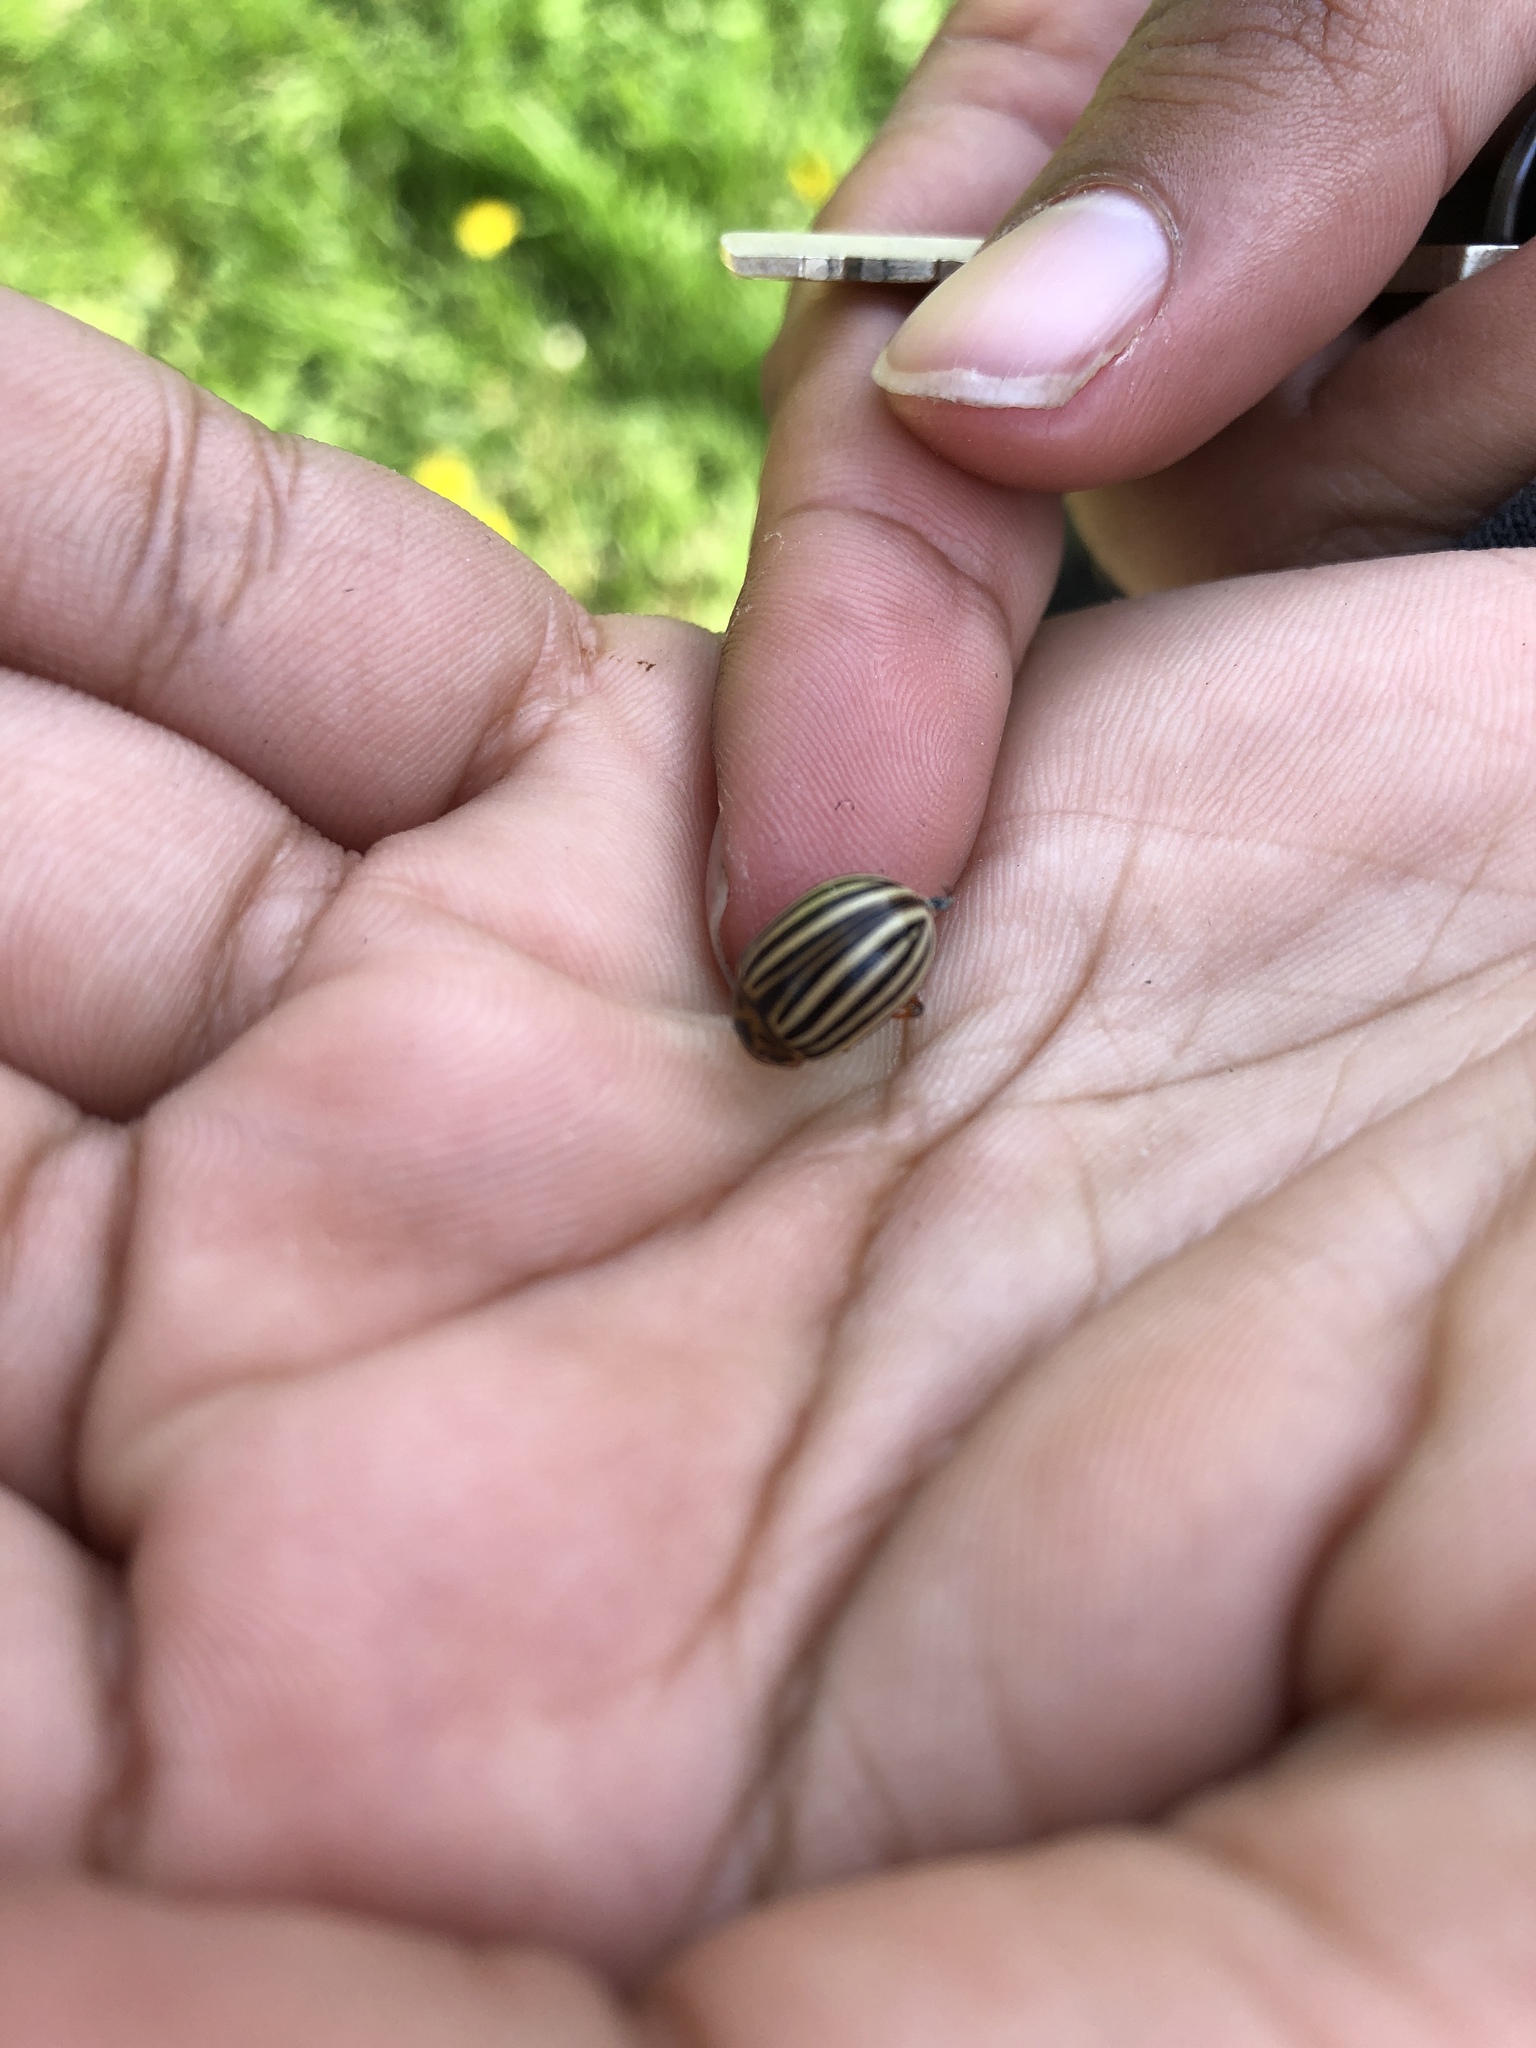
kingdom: Animalia
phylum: Arthropoda
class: Insecta
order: Coleoptera
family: Chrysomelidae
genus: Leptinotarsa
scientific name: Leptinotarsa decemlineata
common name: Colorado potato beetle
